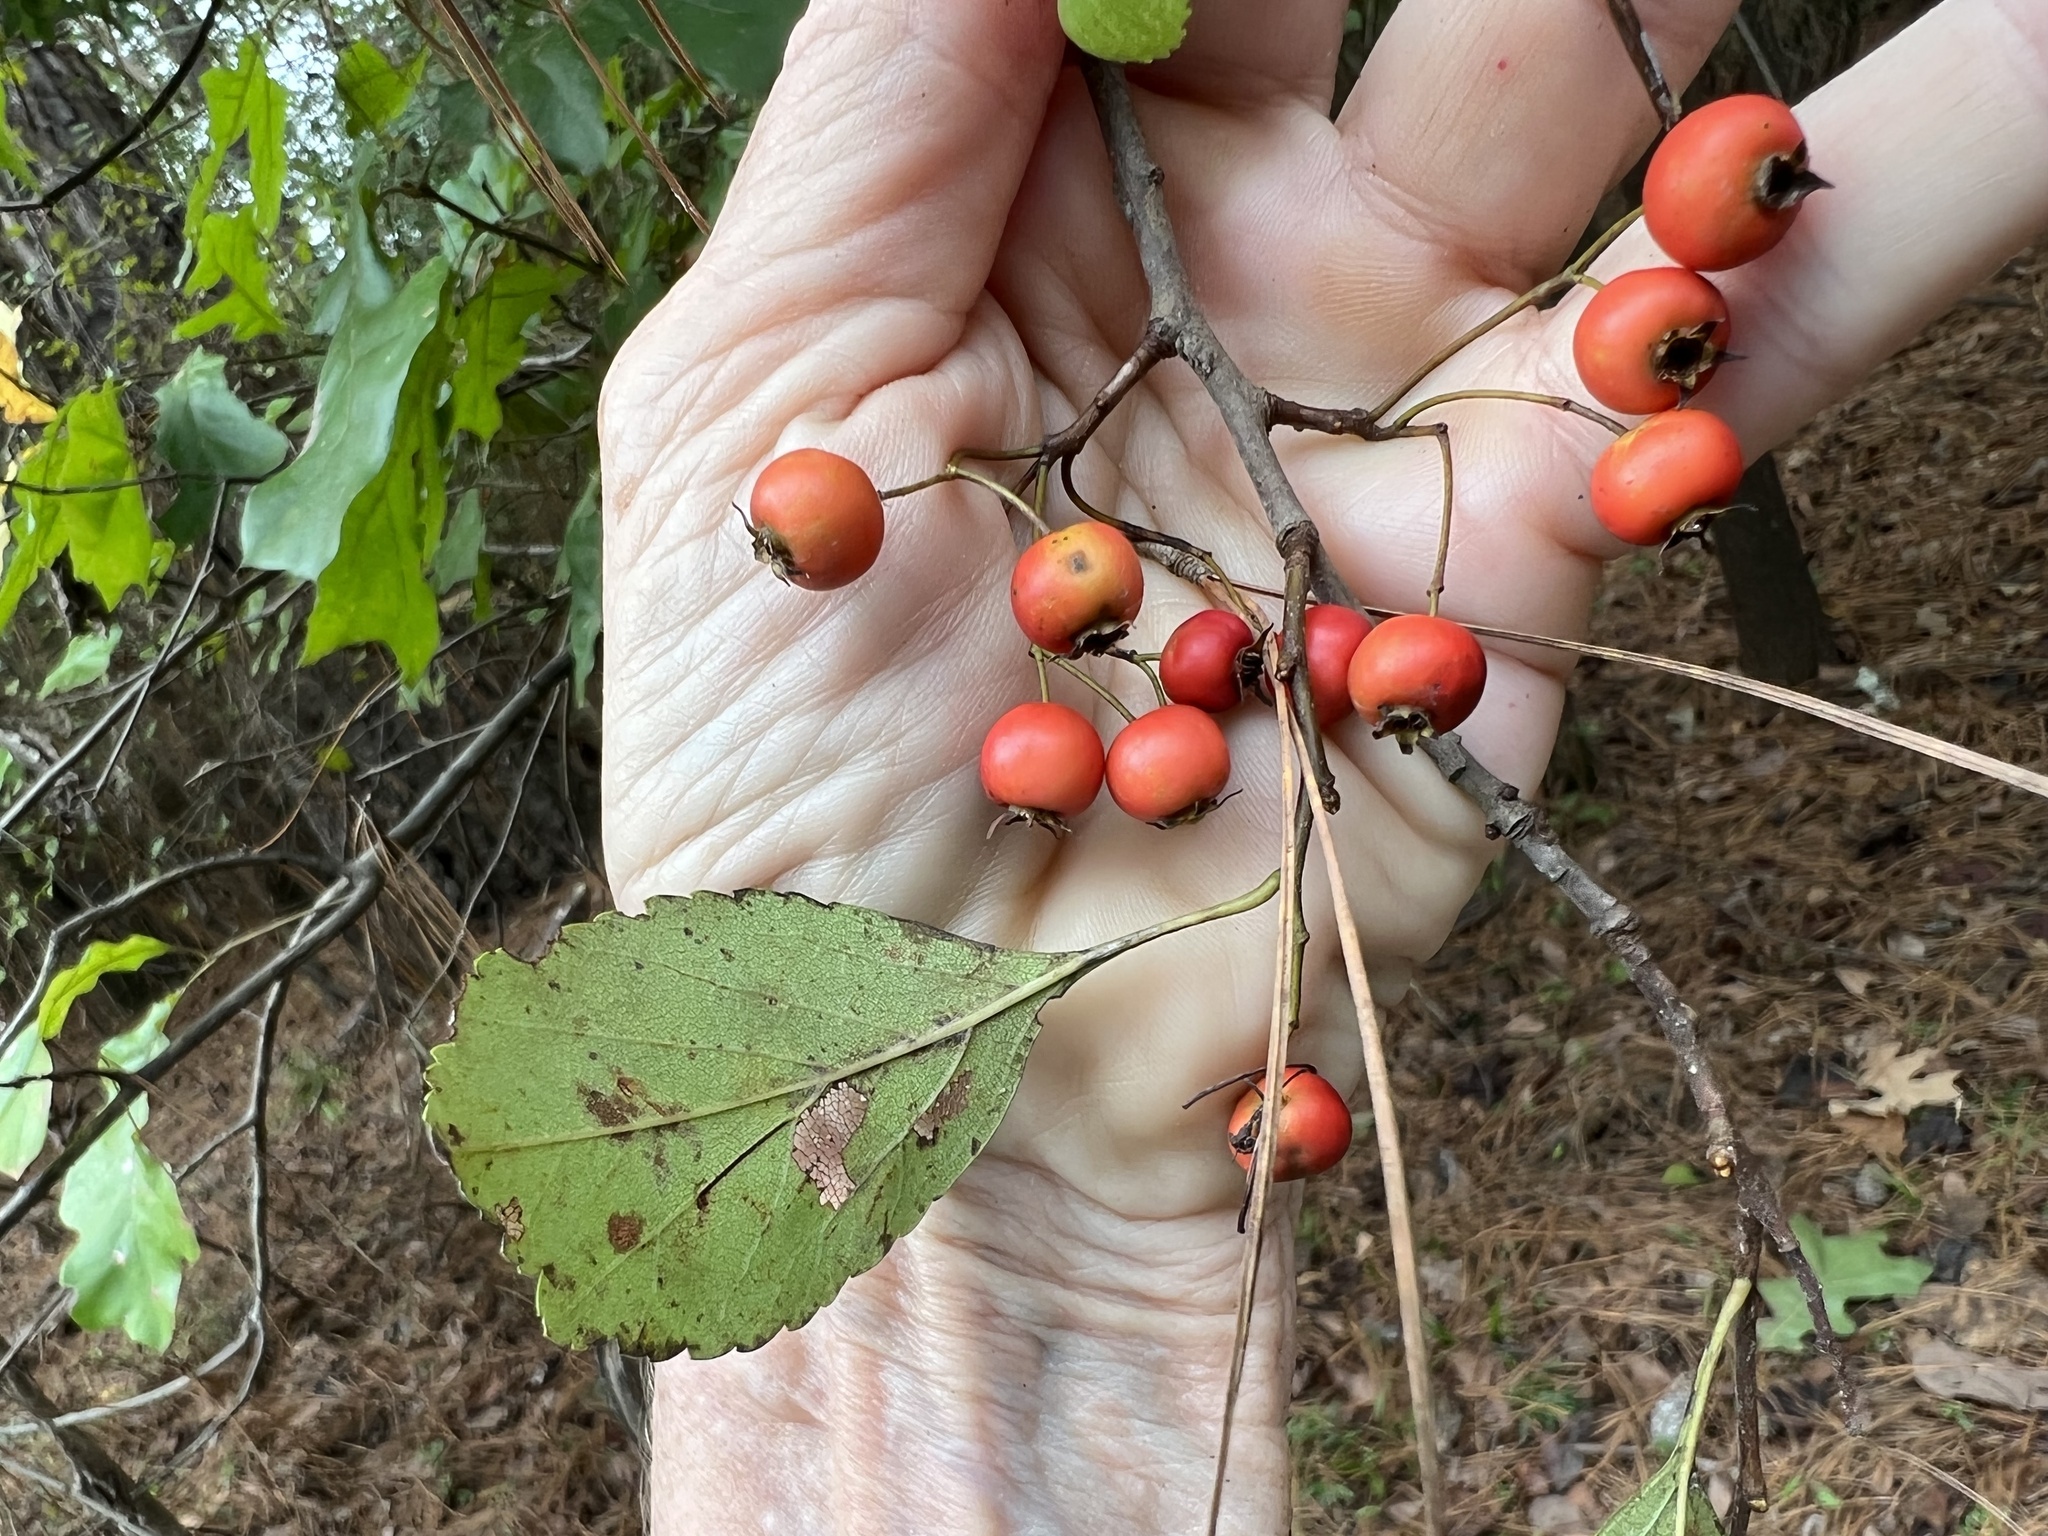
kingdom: Plantae
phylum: Tracheophyta
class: Magnoliopsida
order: Rosales
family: Rosaceae
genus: Crataegus
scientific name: Crataegus viridis
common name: Southernthorn
